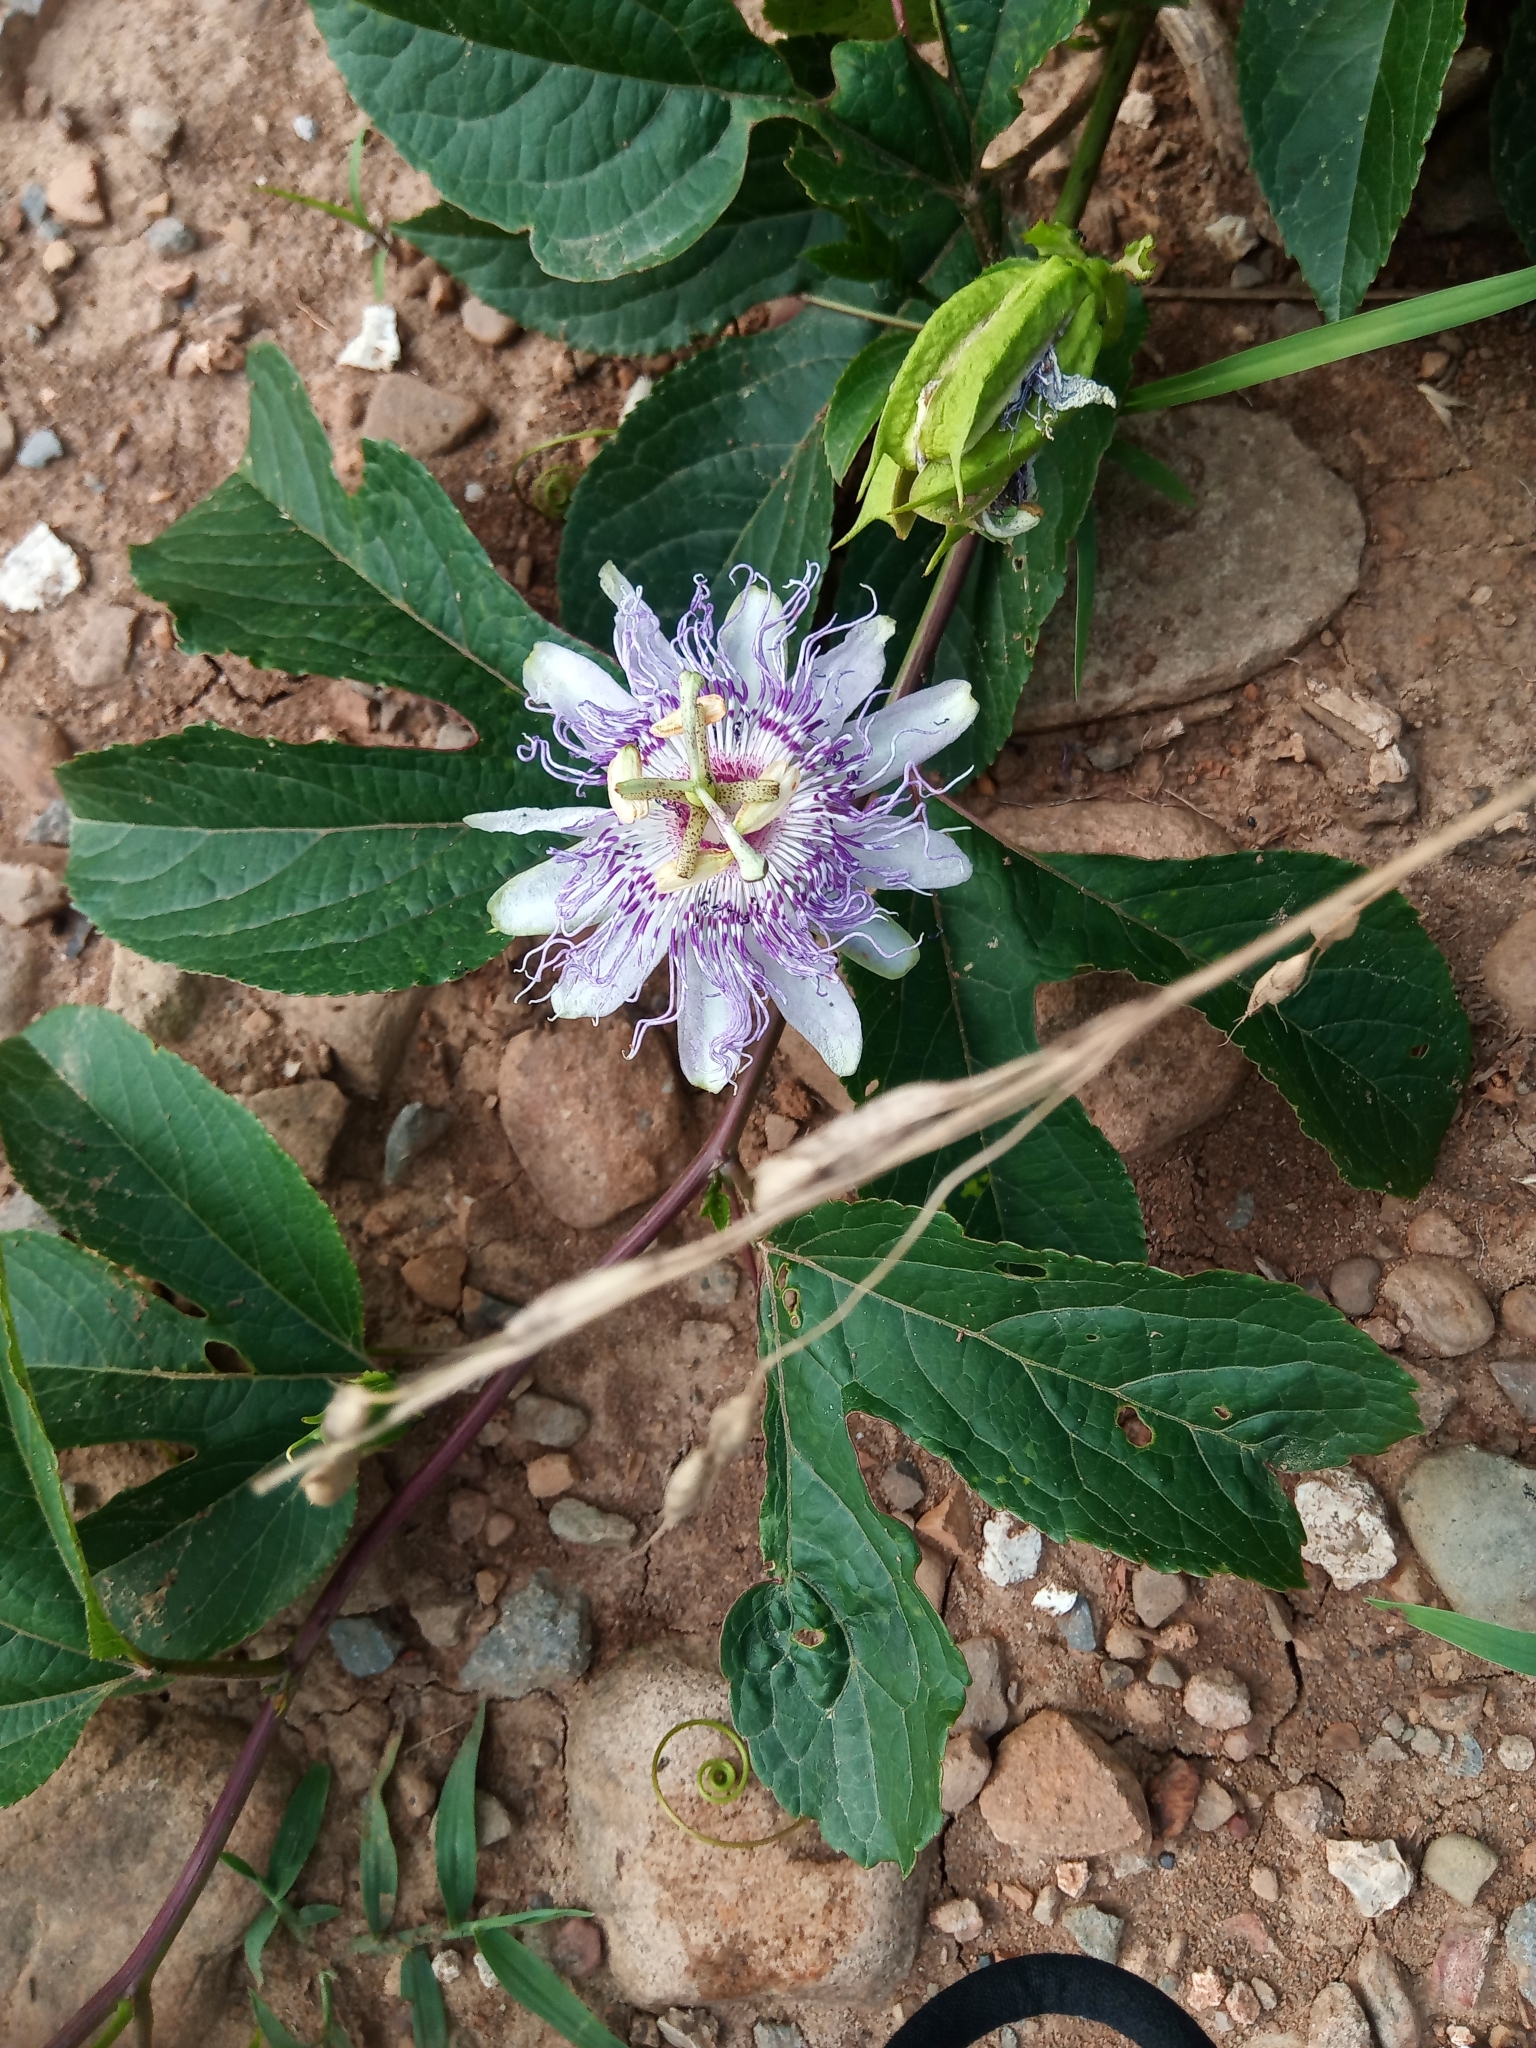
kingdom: Plantae
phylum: Tracheophyta
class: Magnoliopsida
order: Malpighiales
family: Passifloraceae
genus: Passiflora
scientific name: Passiflora incarnata
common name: Apricot-vine
